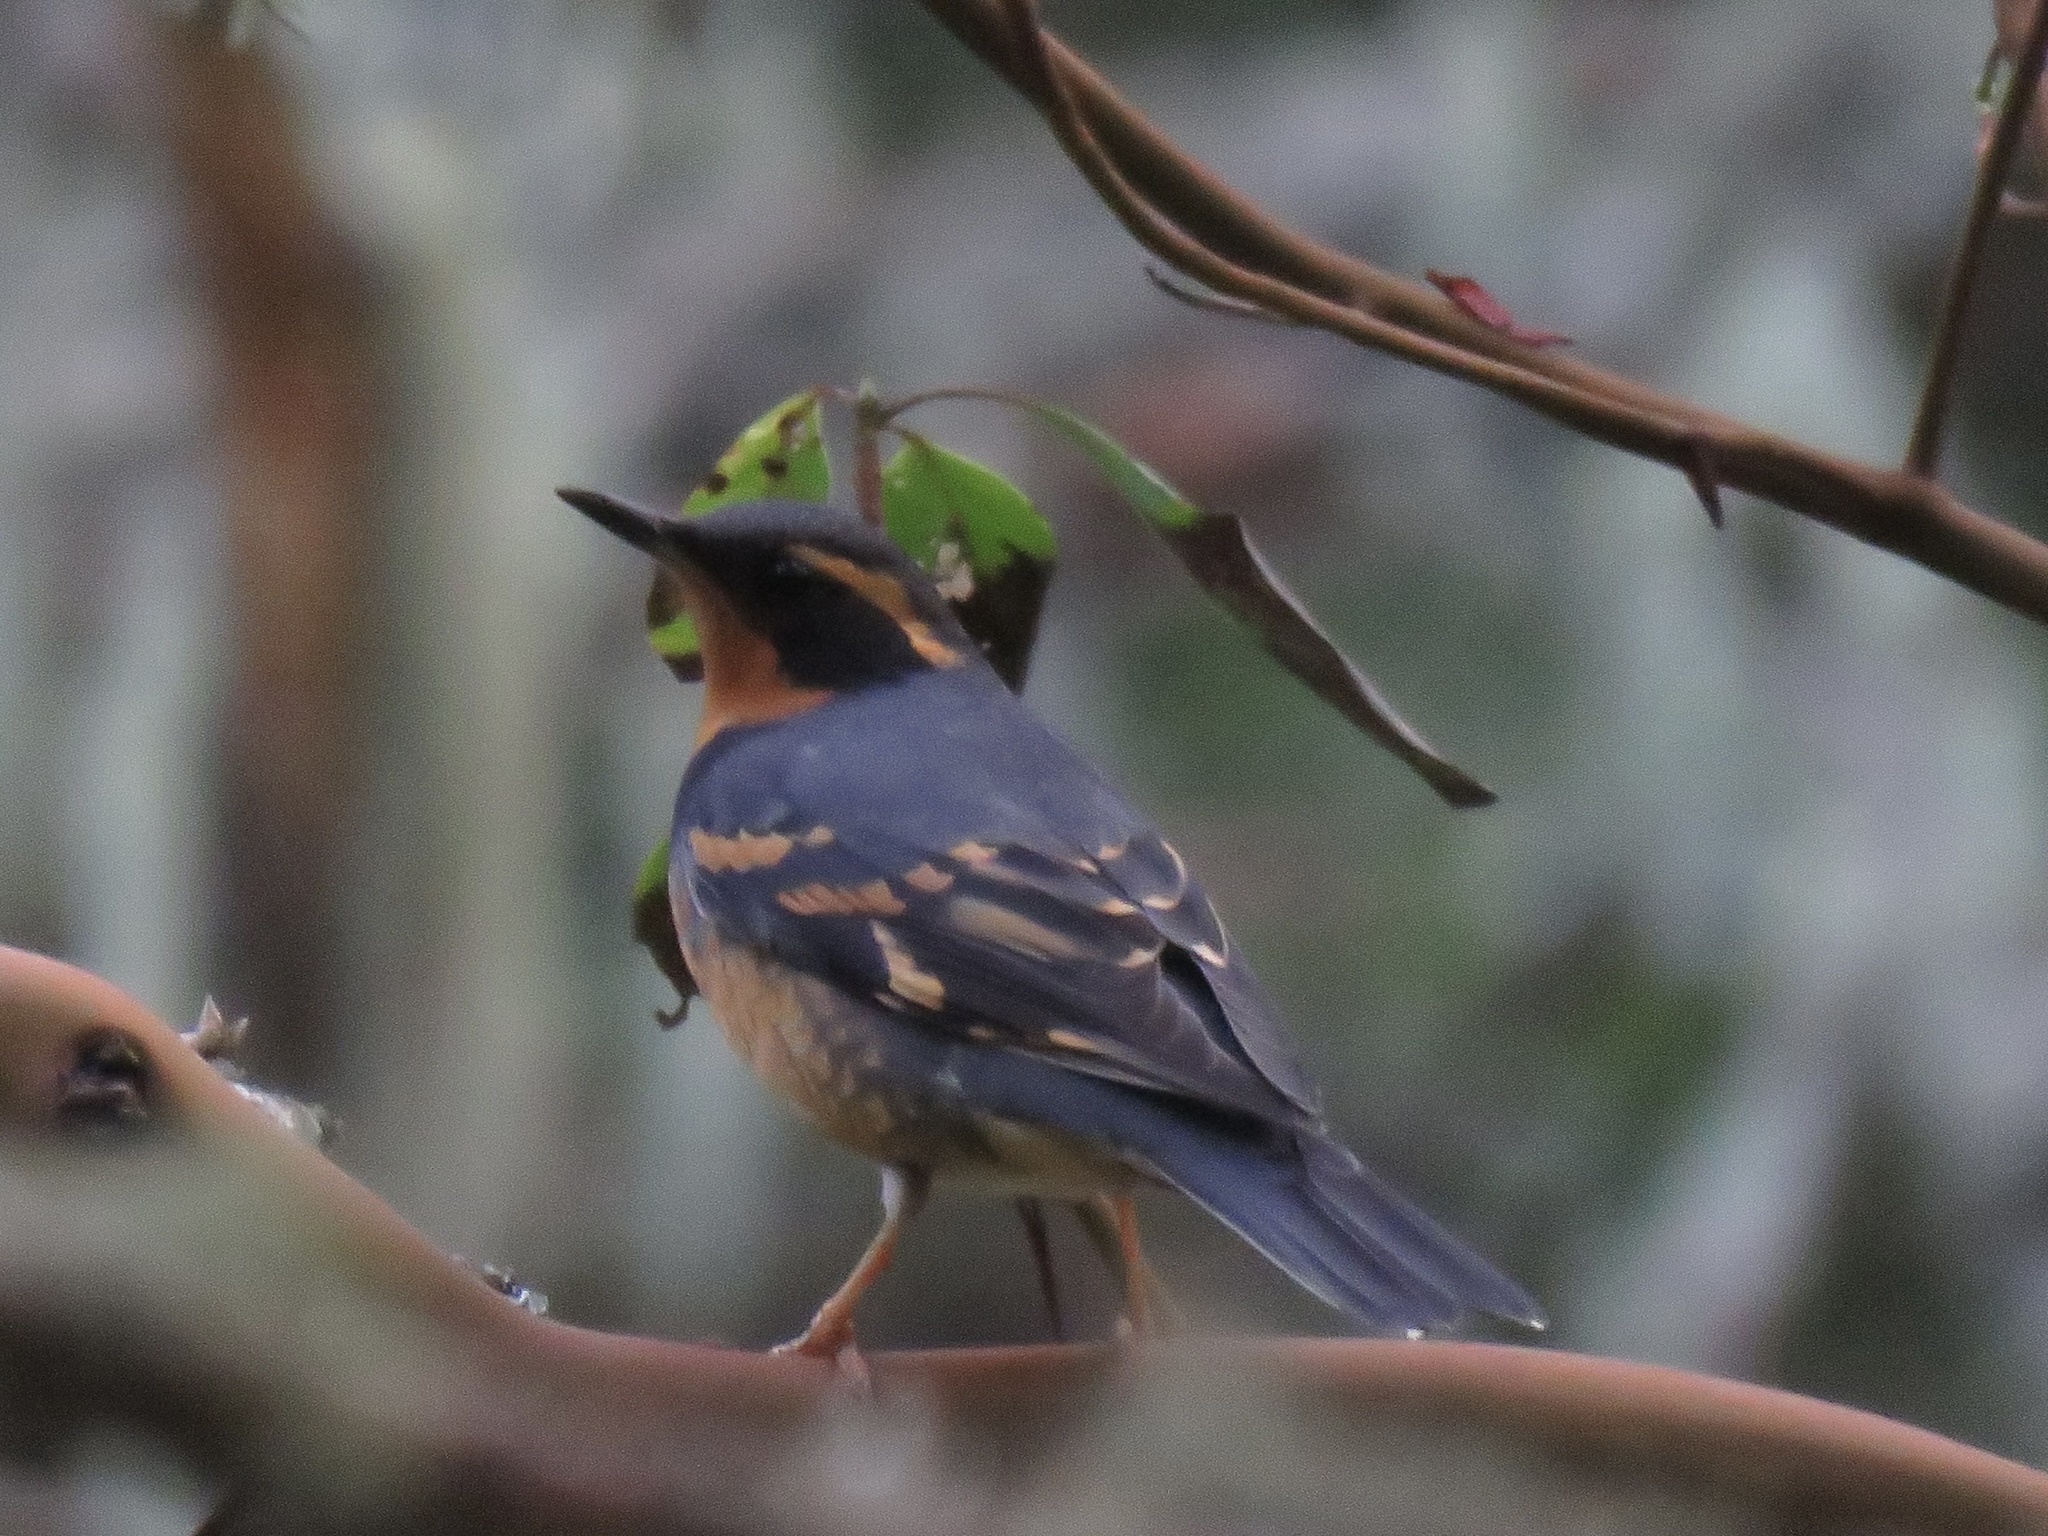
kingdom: Animalia
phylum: Chordata
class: Aves
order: Passeriformes
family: Turdidae
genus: Ixoreus
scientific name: Ixoreus naevius
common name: Varied thrush
